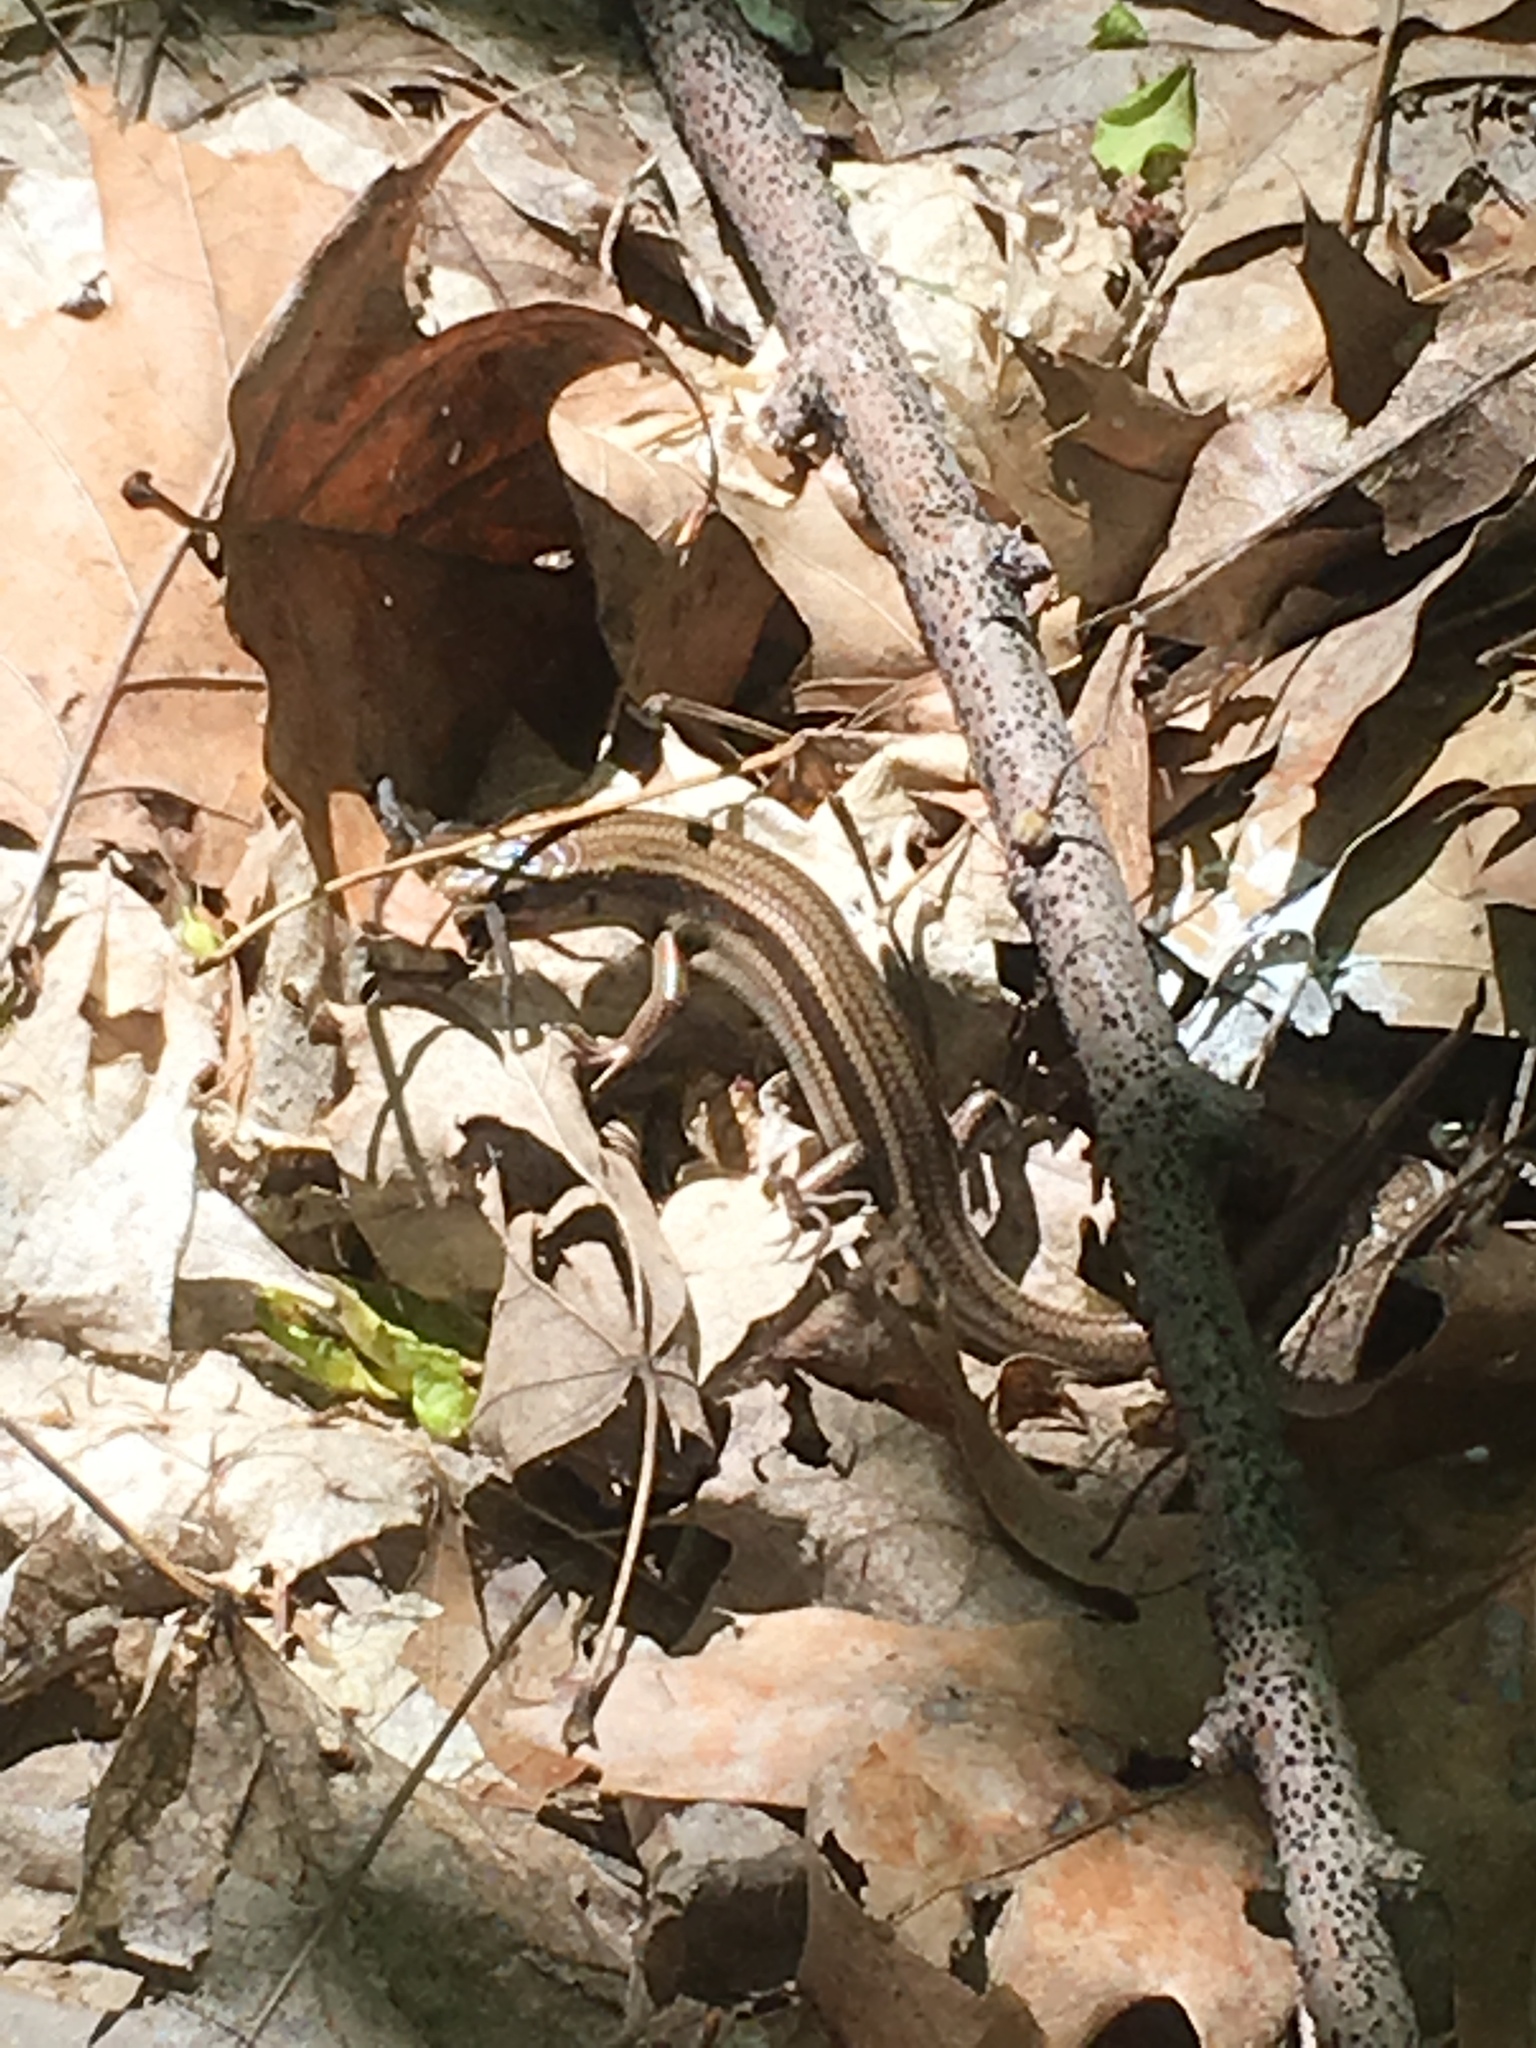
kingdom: Animalia
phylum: Chordata
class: Squamata
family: Scincidae
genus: Plestiodon
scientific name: Plestiodon fasciatus
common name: Five-lined skink
